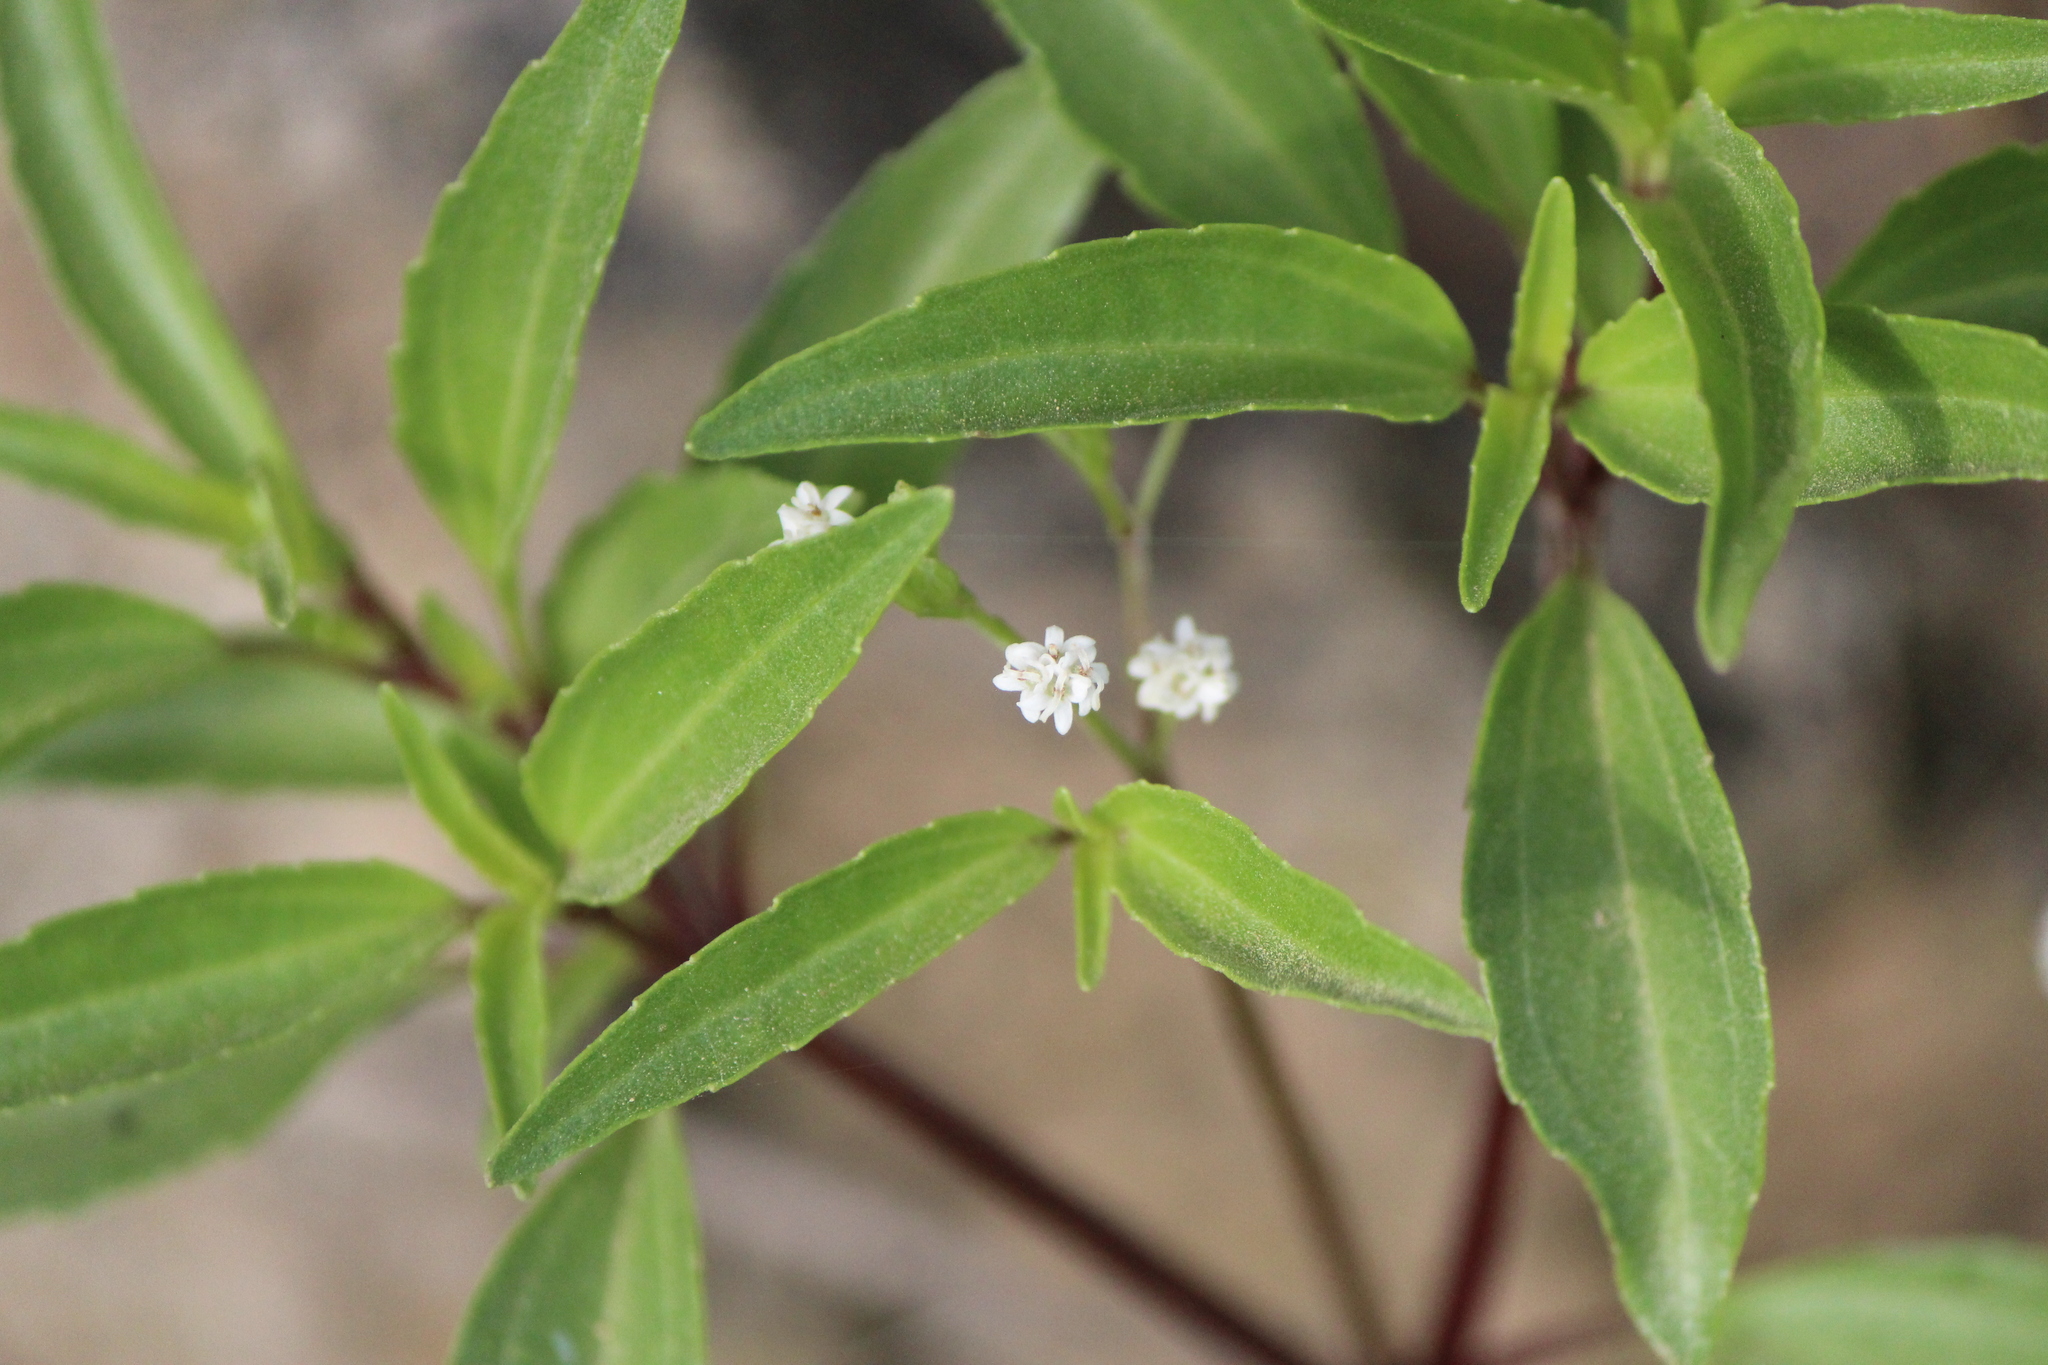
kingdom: Plantae
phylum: Tracheophyta
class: Magnoliopsida
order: Asterales
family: Asteraceae
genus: Piqueria
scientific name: Piqueria trinervia
